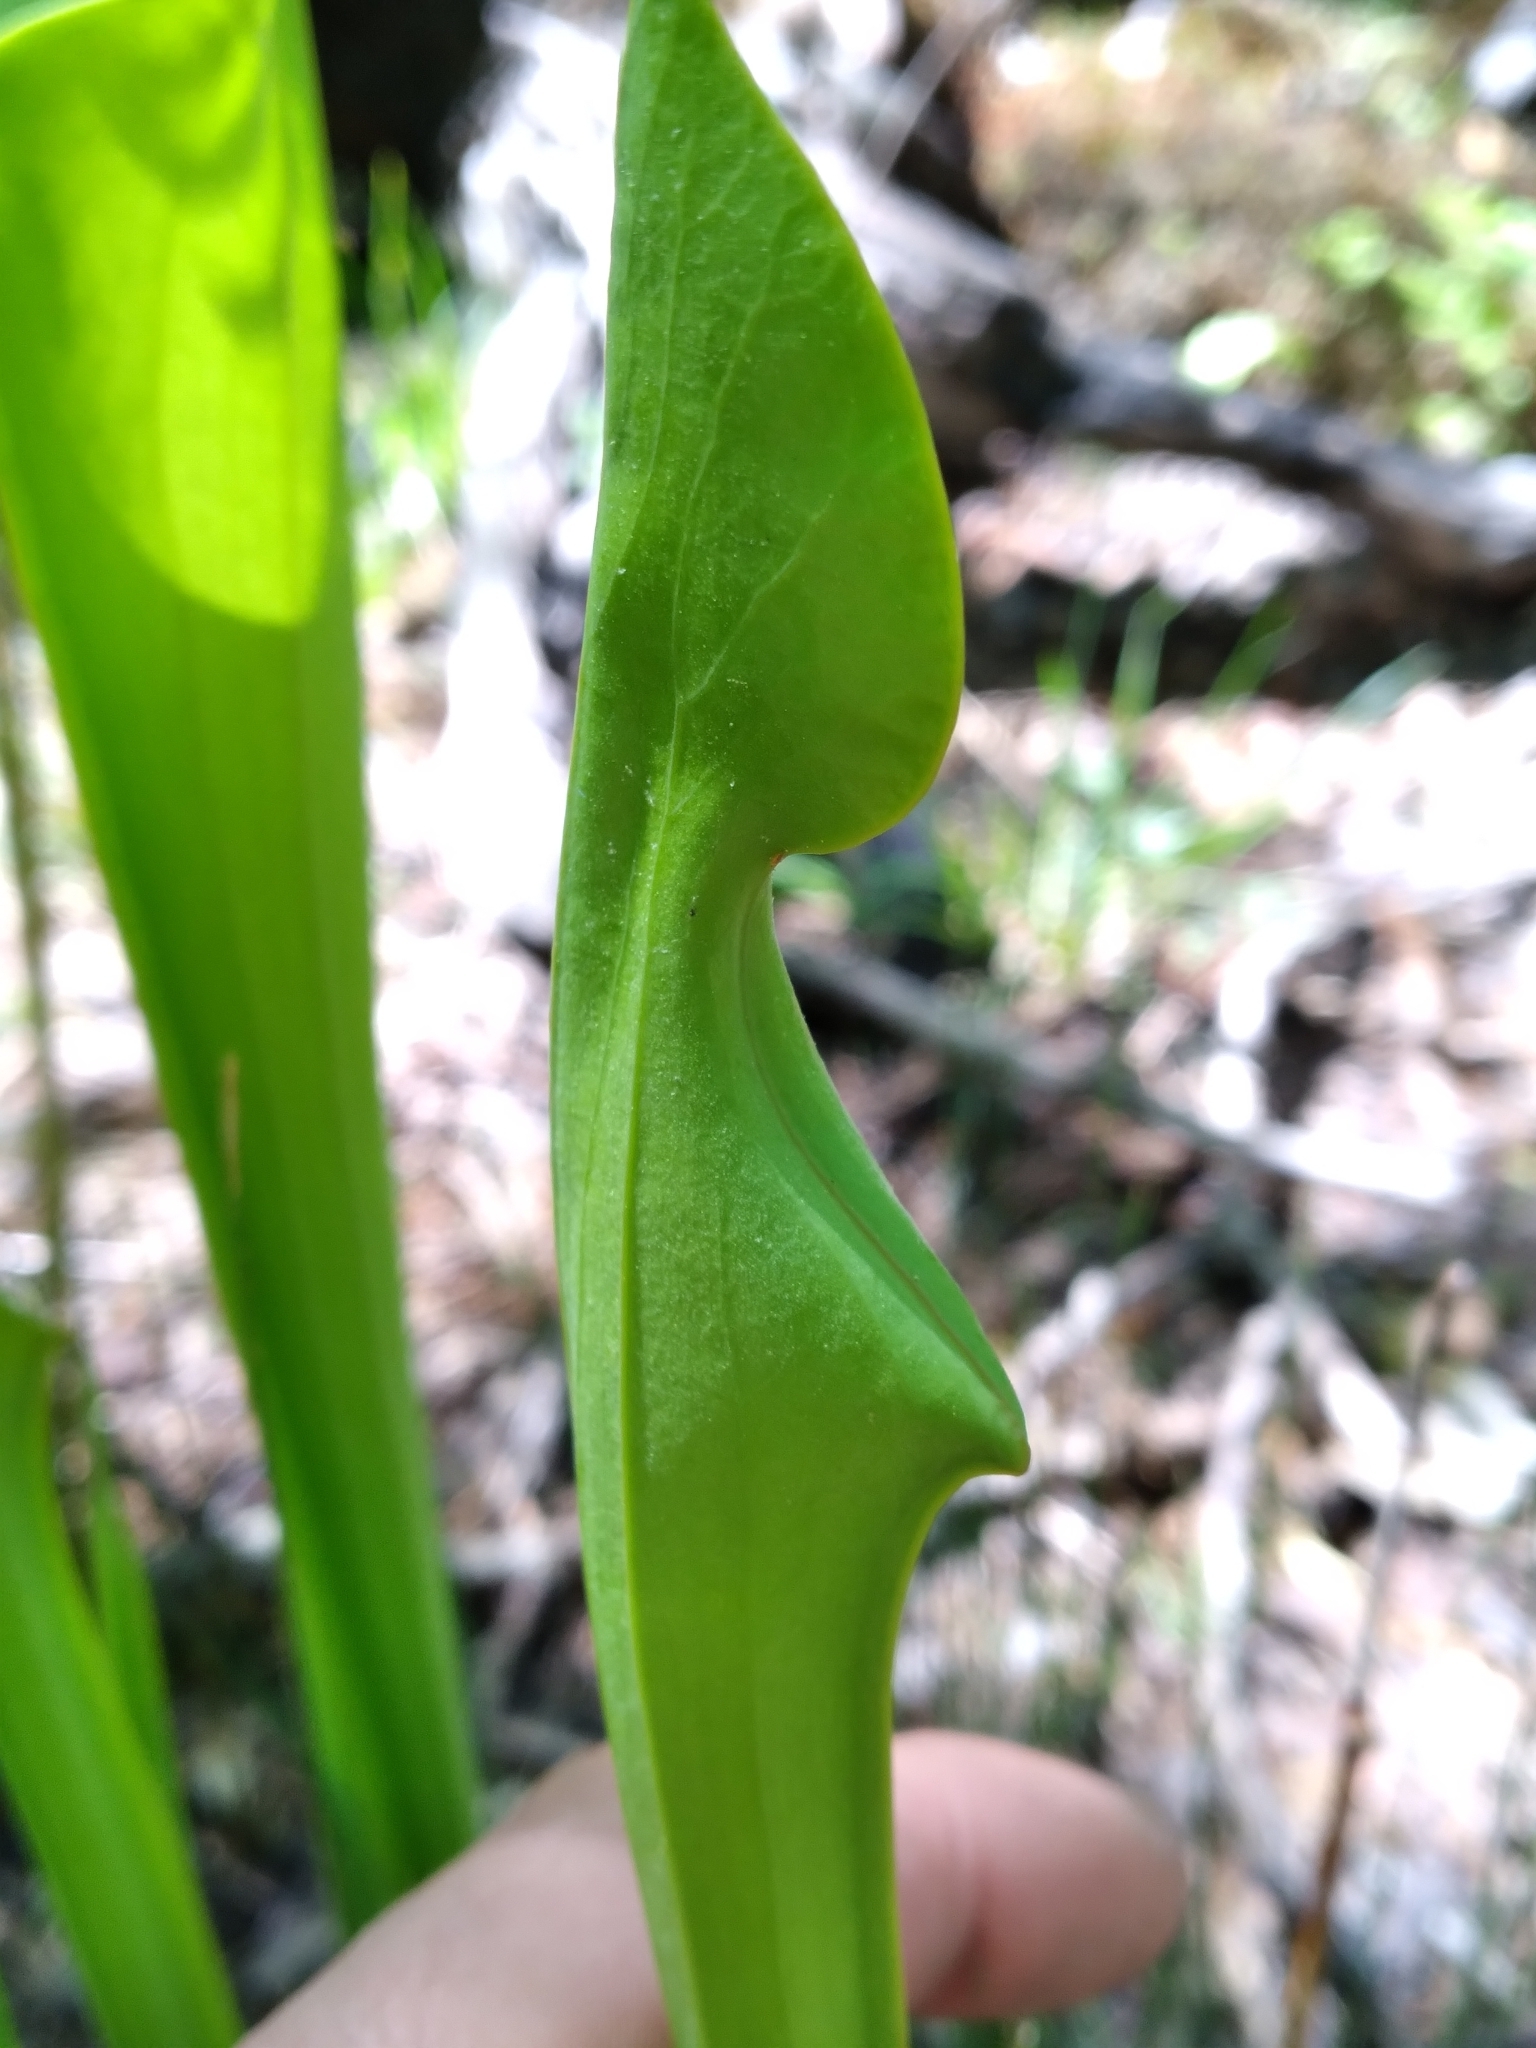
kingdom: Plantae
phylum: Tracheophyta
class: Magnoliopsida
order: Ericales
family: Sarraceniaceae
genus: Sarracenia
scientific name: Sarracenia flava
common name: Trumpets
